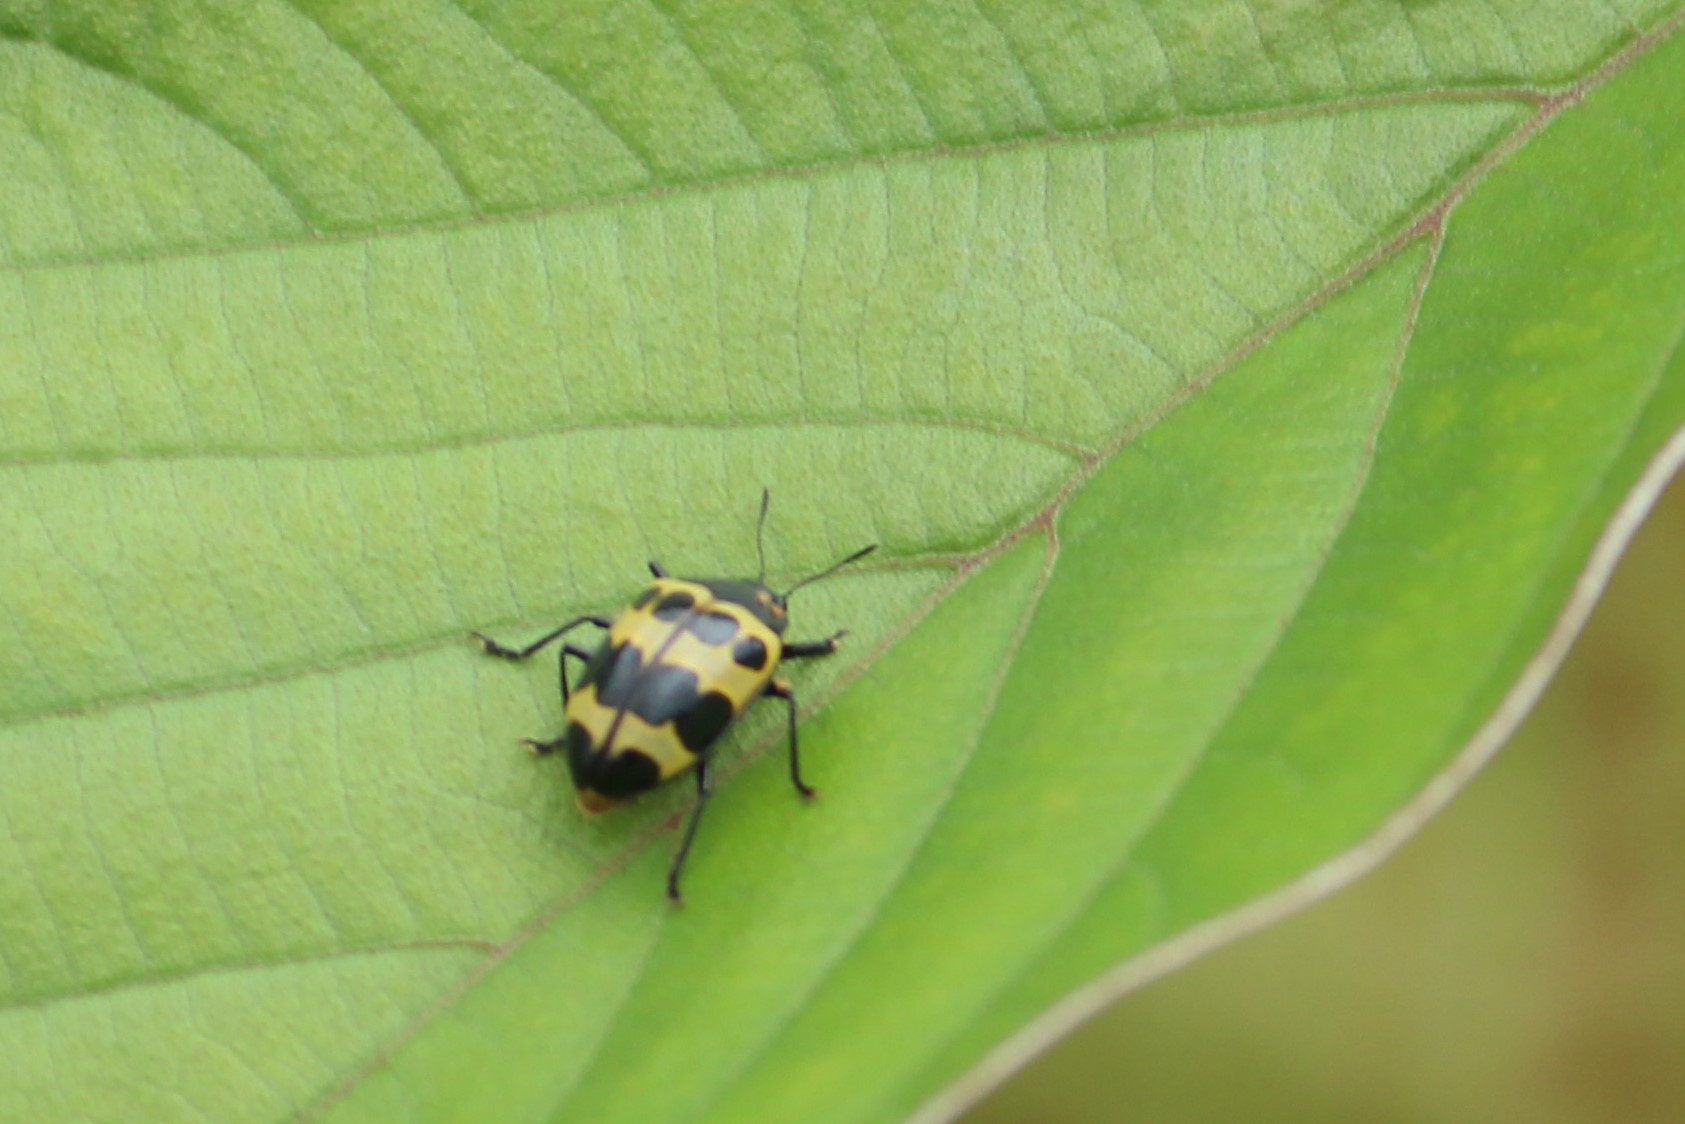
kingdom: Animalia
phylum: Arthropoda
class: Insecta
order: Coleoptera
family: Erotylidae
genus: Oligocorynus
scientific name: Oligocorynus
